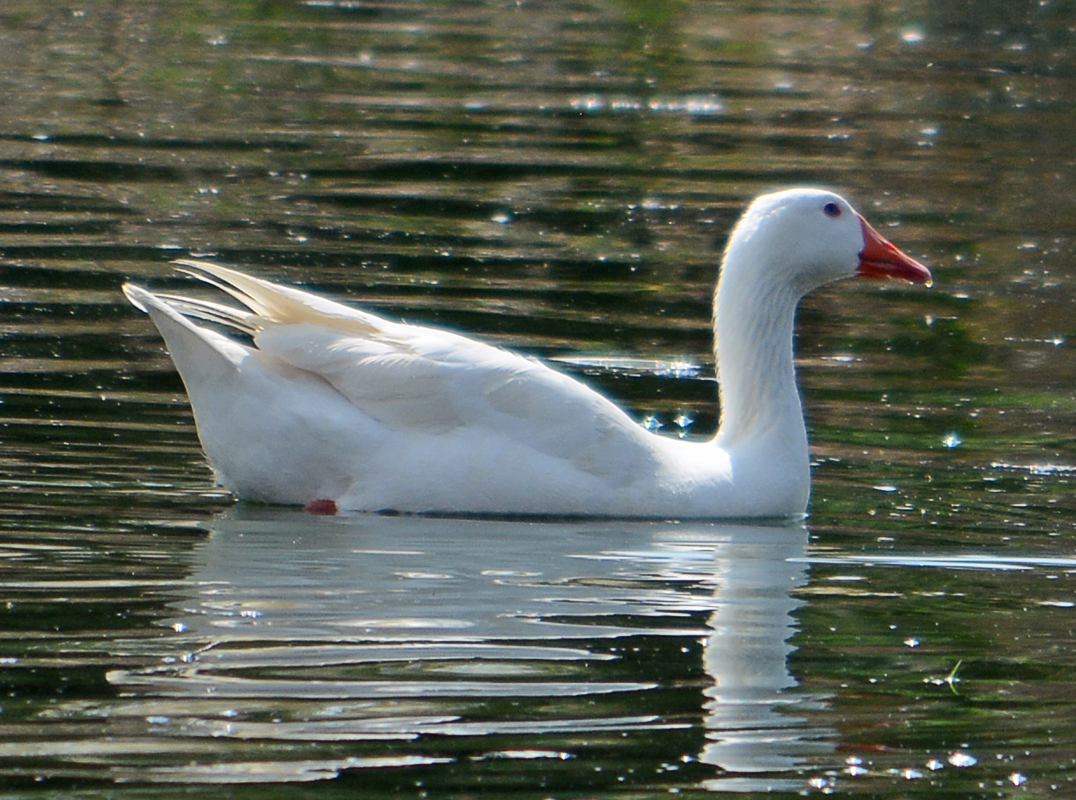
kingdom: Animalia
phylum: Chordata
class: Aves
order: Anseriformes
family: Anatidae
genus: Anser
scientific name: Anser anser
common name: Greylag goose
